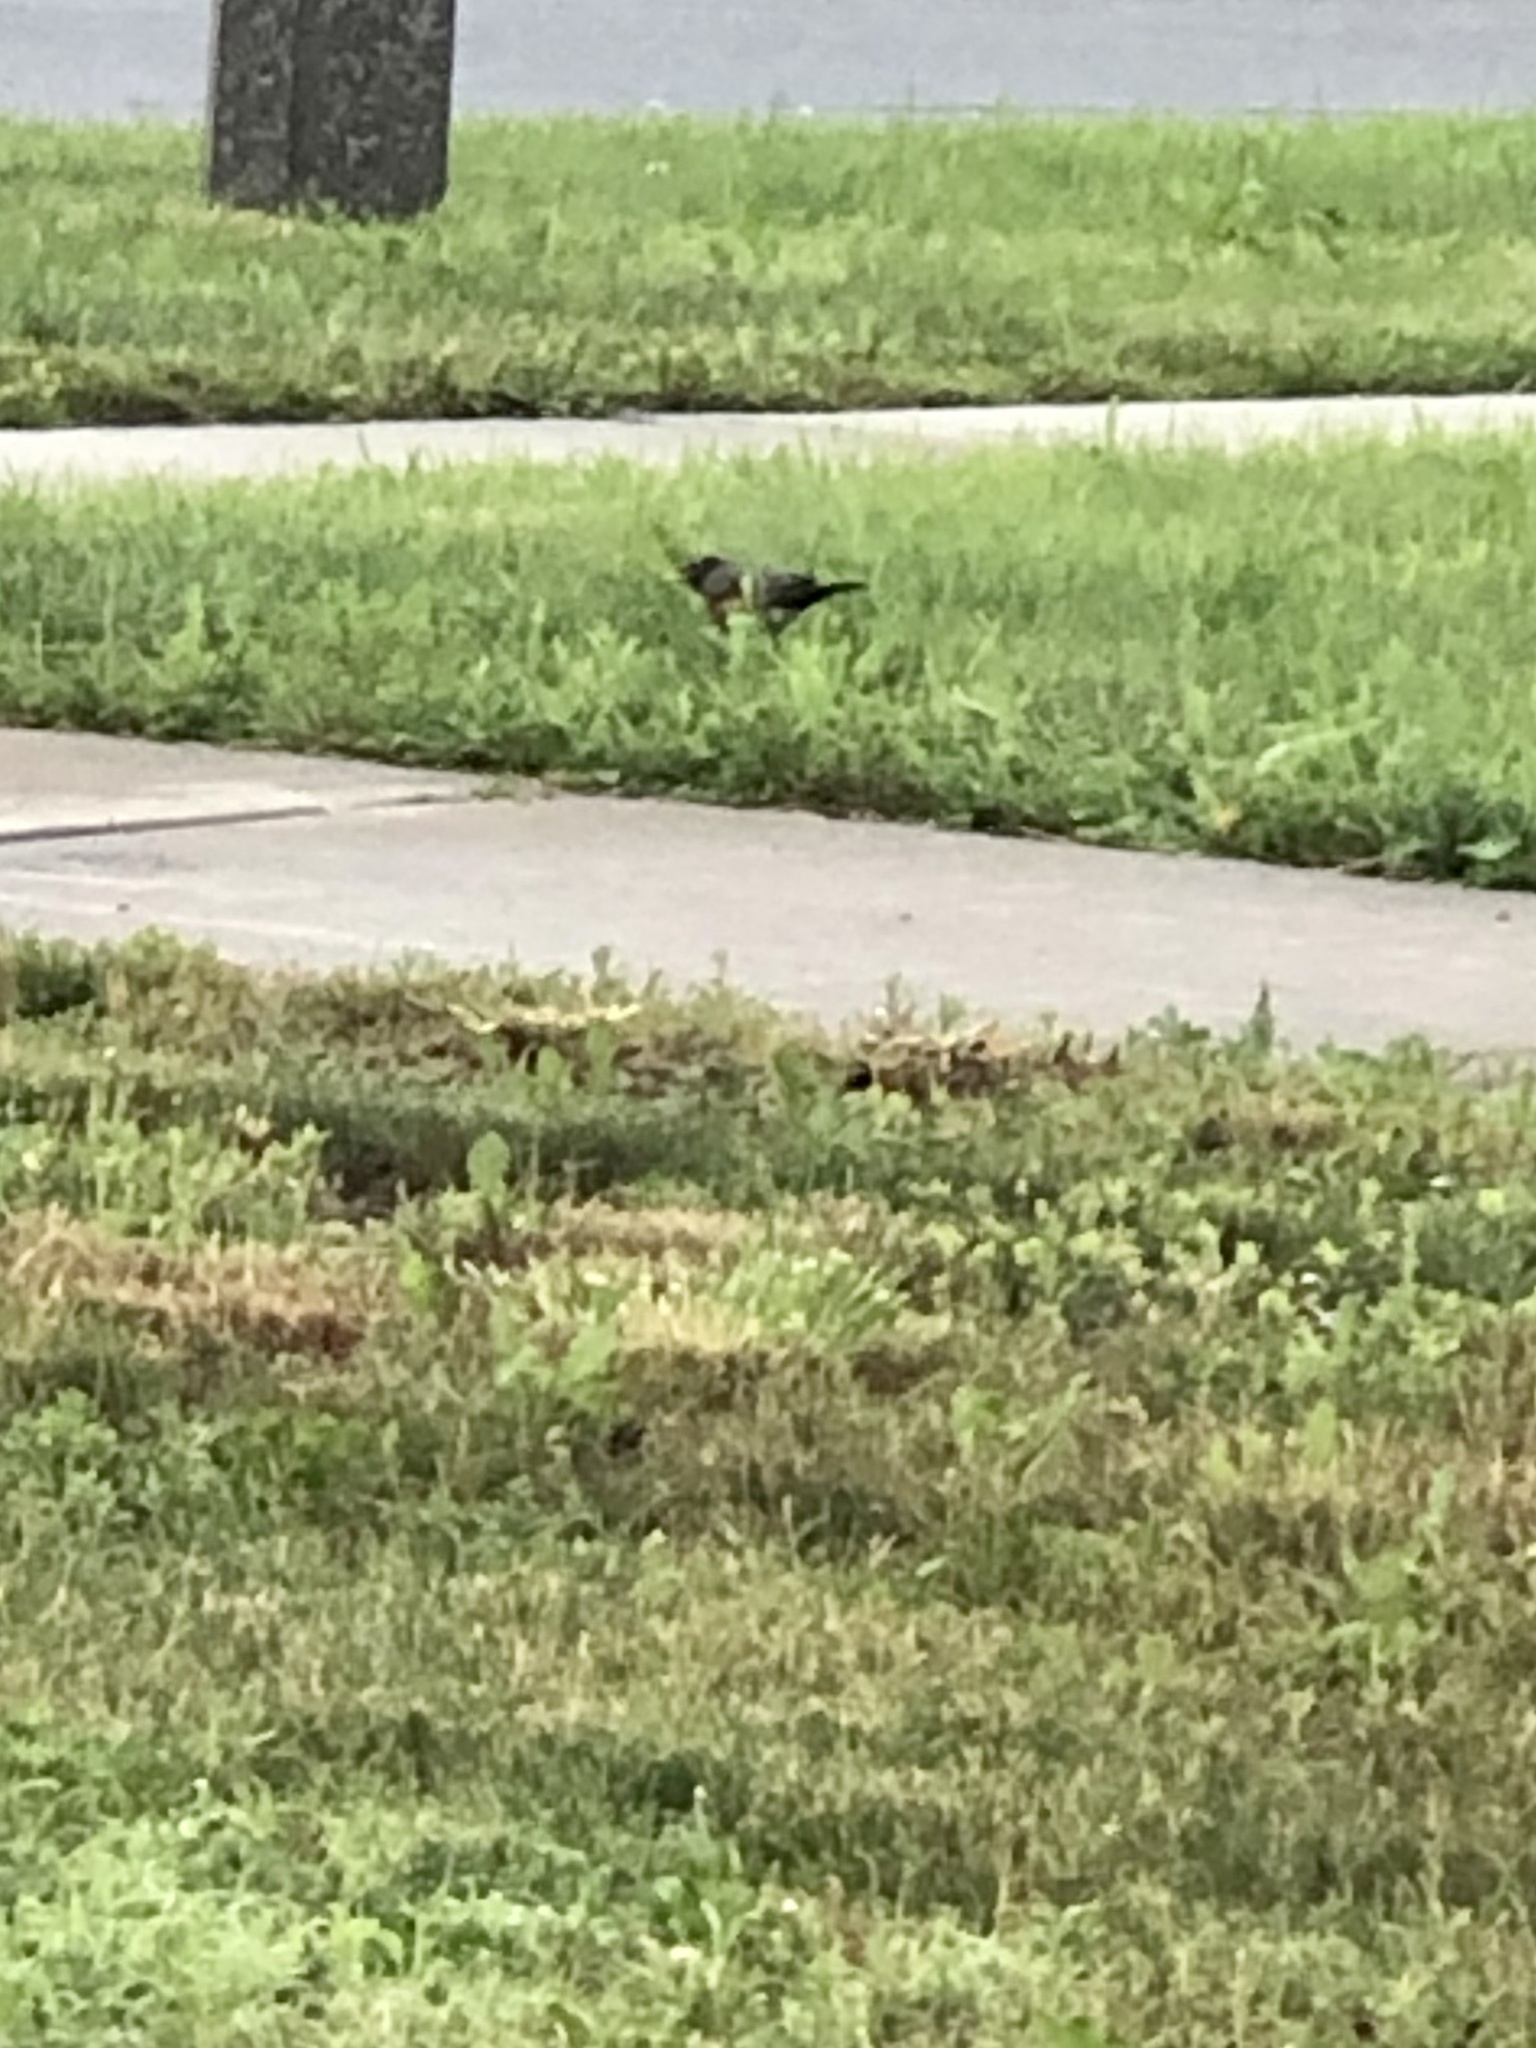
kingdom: Animalia
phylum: Chordata
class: Aves
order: Passeriformes
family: Turdidae
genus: Turdus
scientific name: Turdus migratorius
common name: American robin
